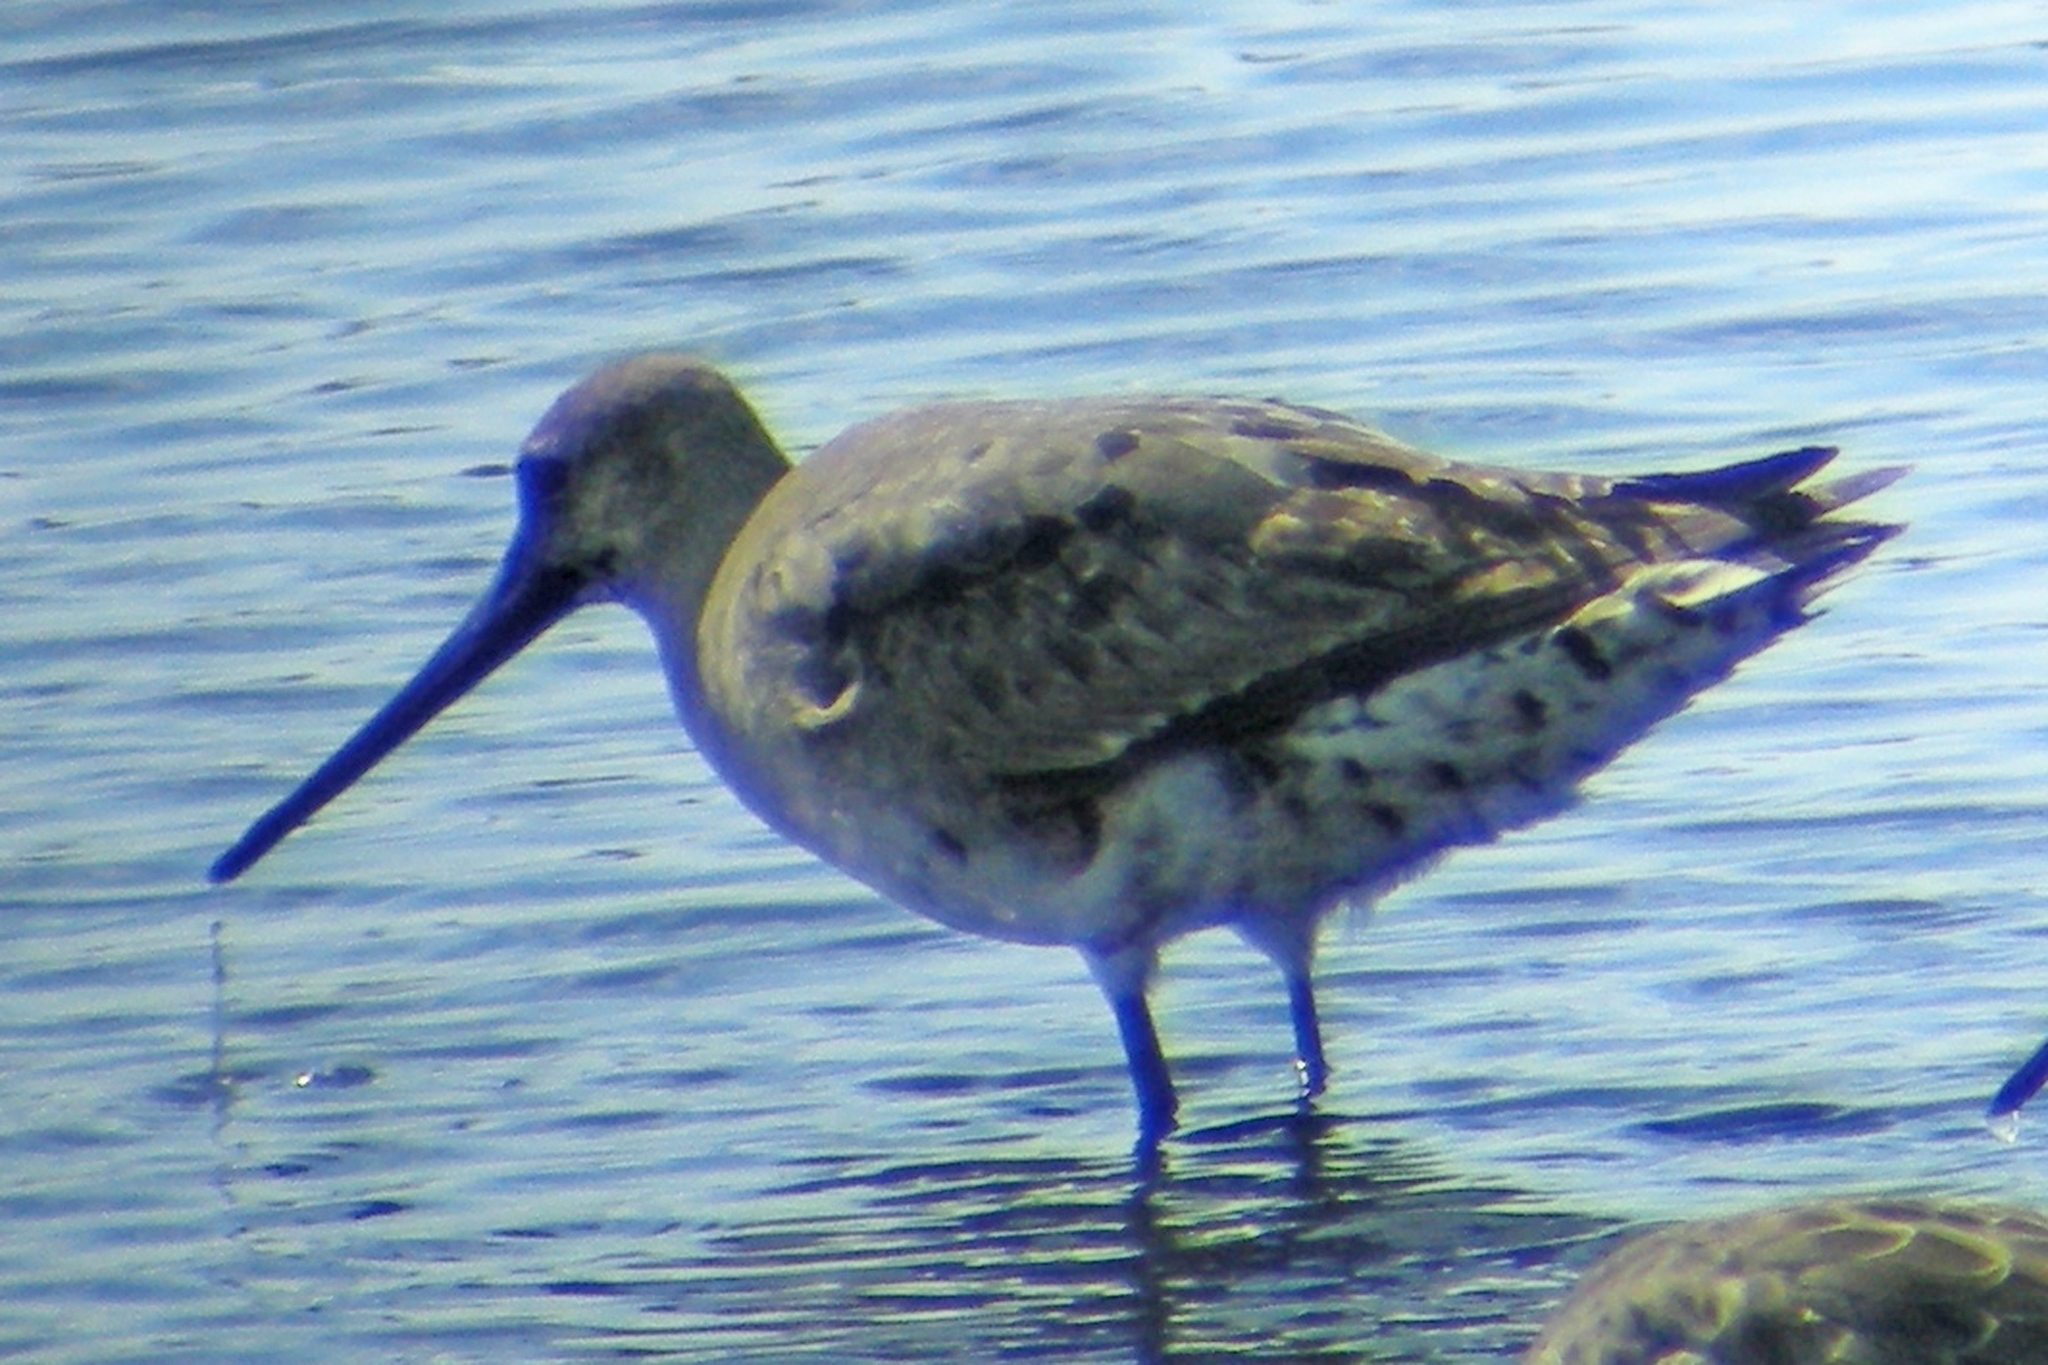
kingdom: Animalia
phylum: Chordata
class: Aves
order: Charadriiformes
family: Scolopacidae
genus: Limosa
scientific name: Limosa haemastica
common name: Hudsonian godwit
